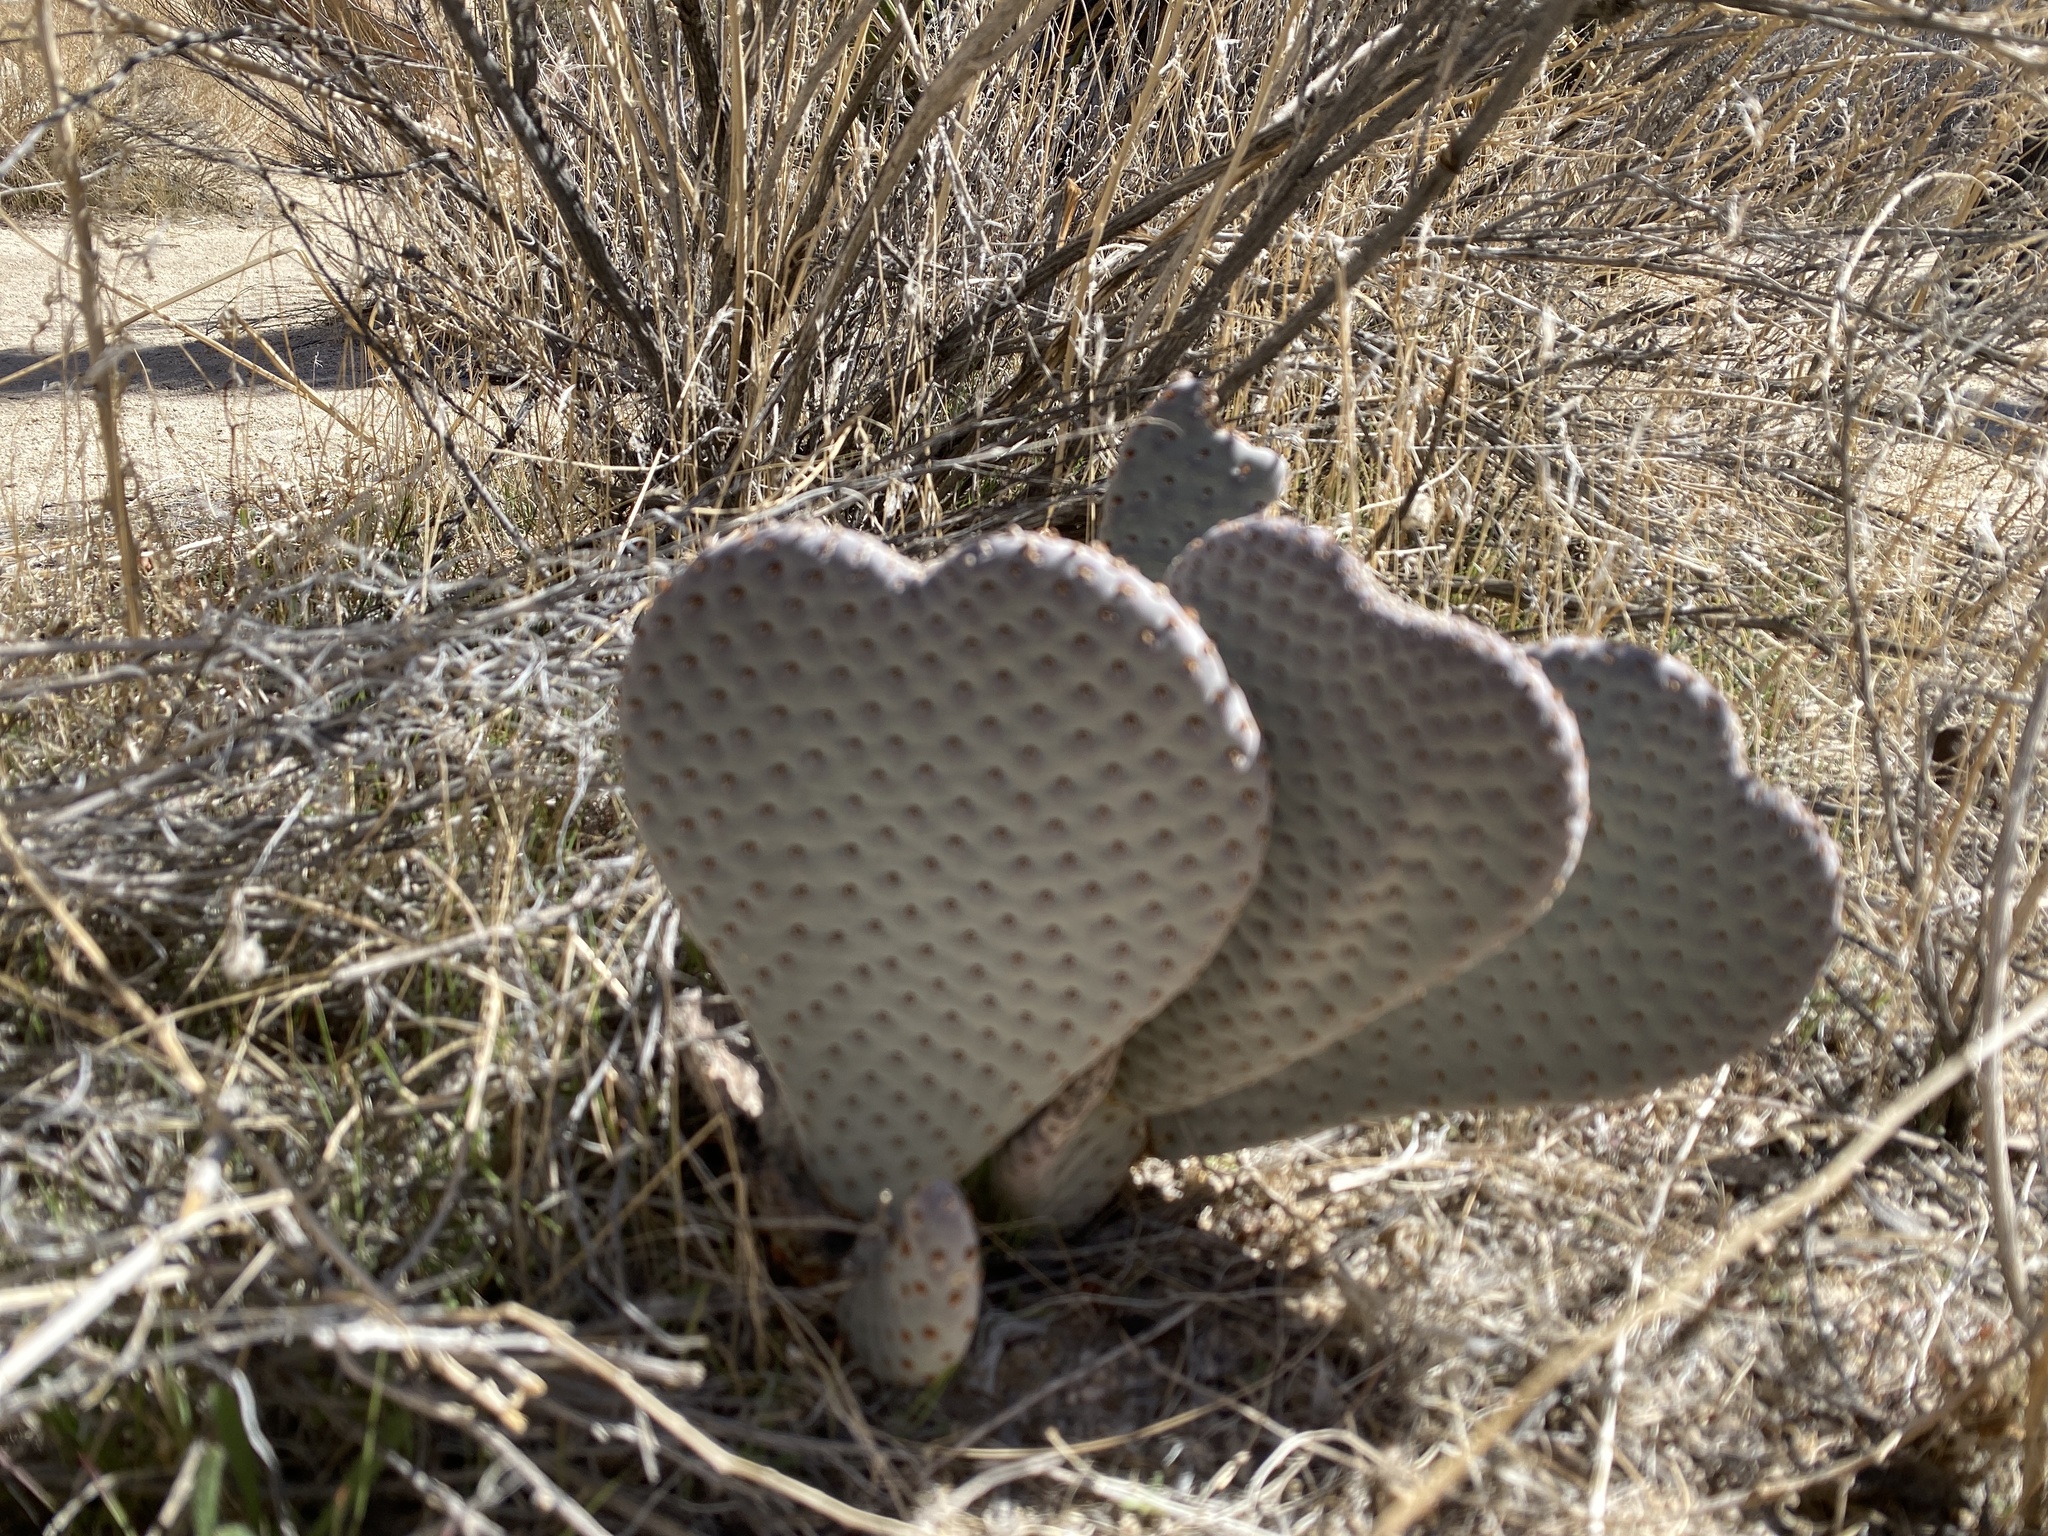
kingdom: Plantae
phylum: Tracheophyta
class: Magnoliopsida
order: Caryophyllales
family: Cactaceae
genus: Opuntia
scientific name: Opuntia basilaris
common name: Beavertail prickly-pear
